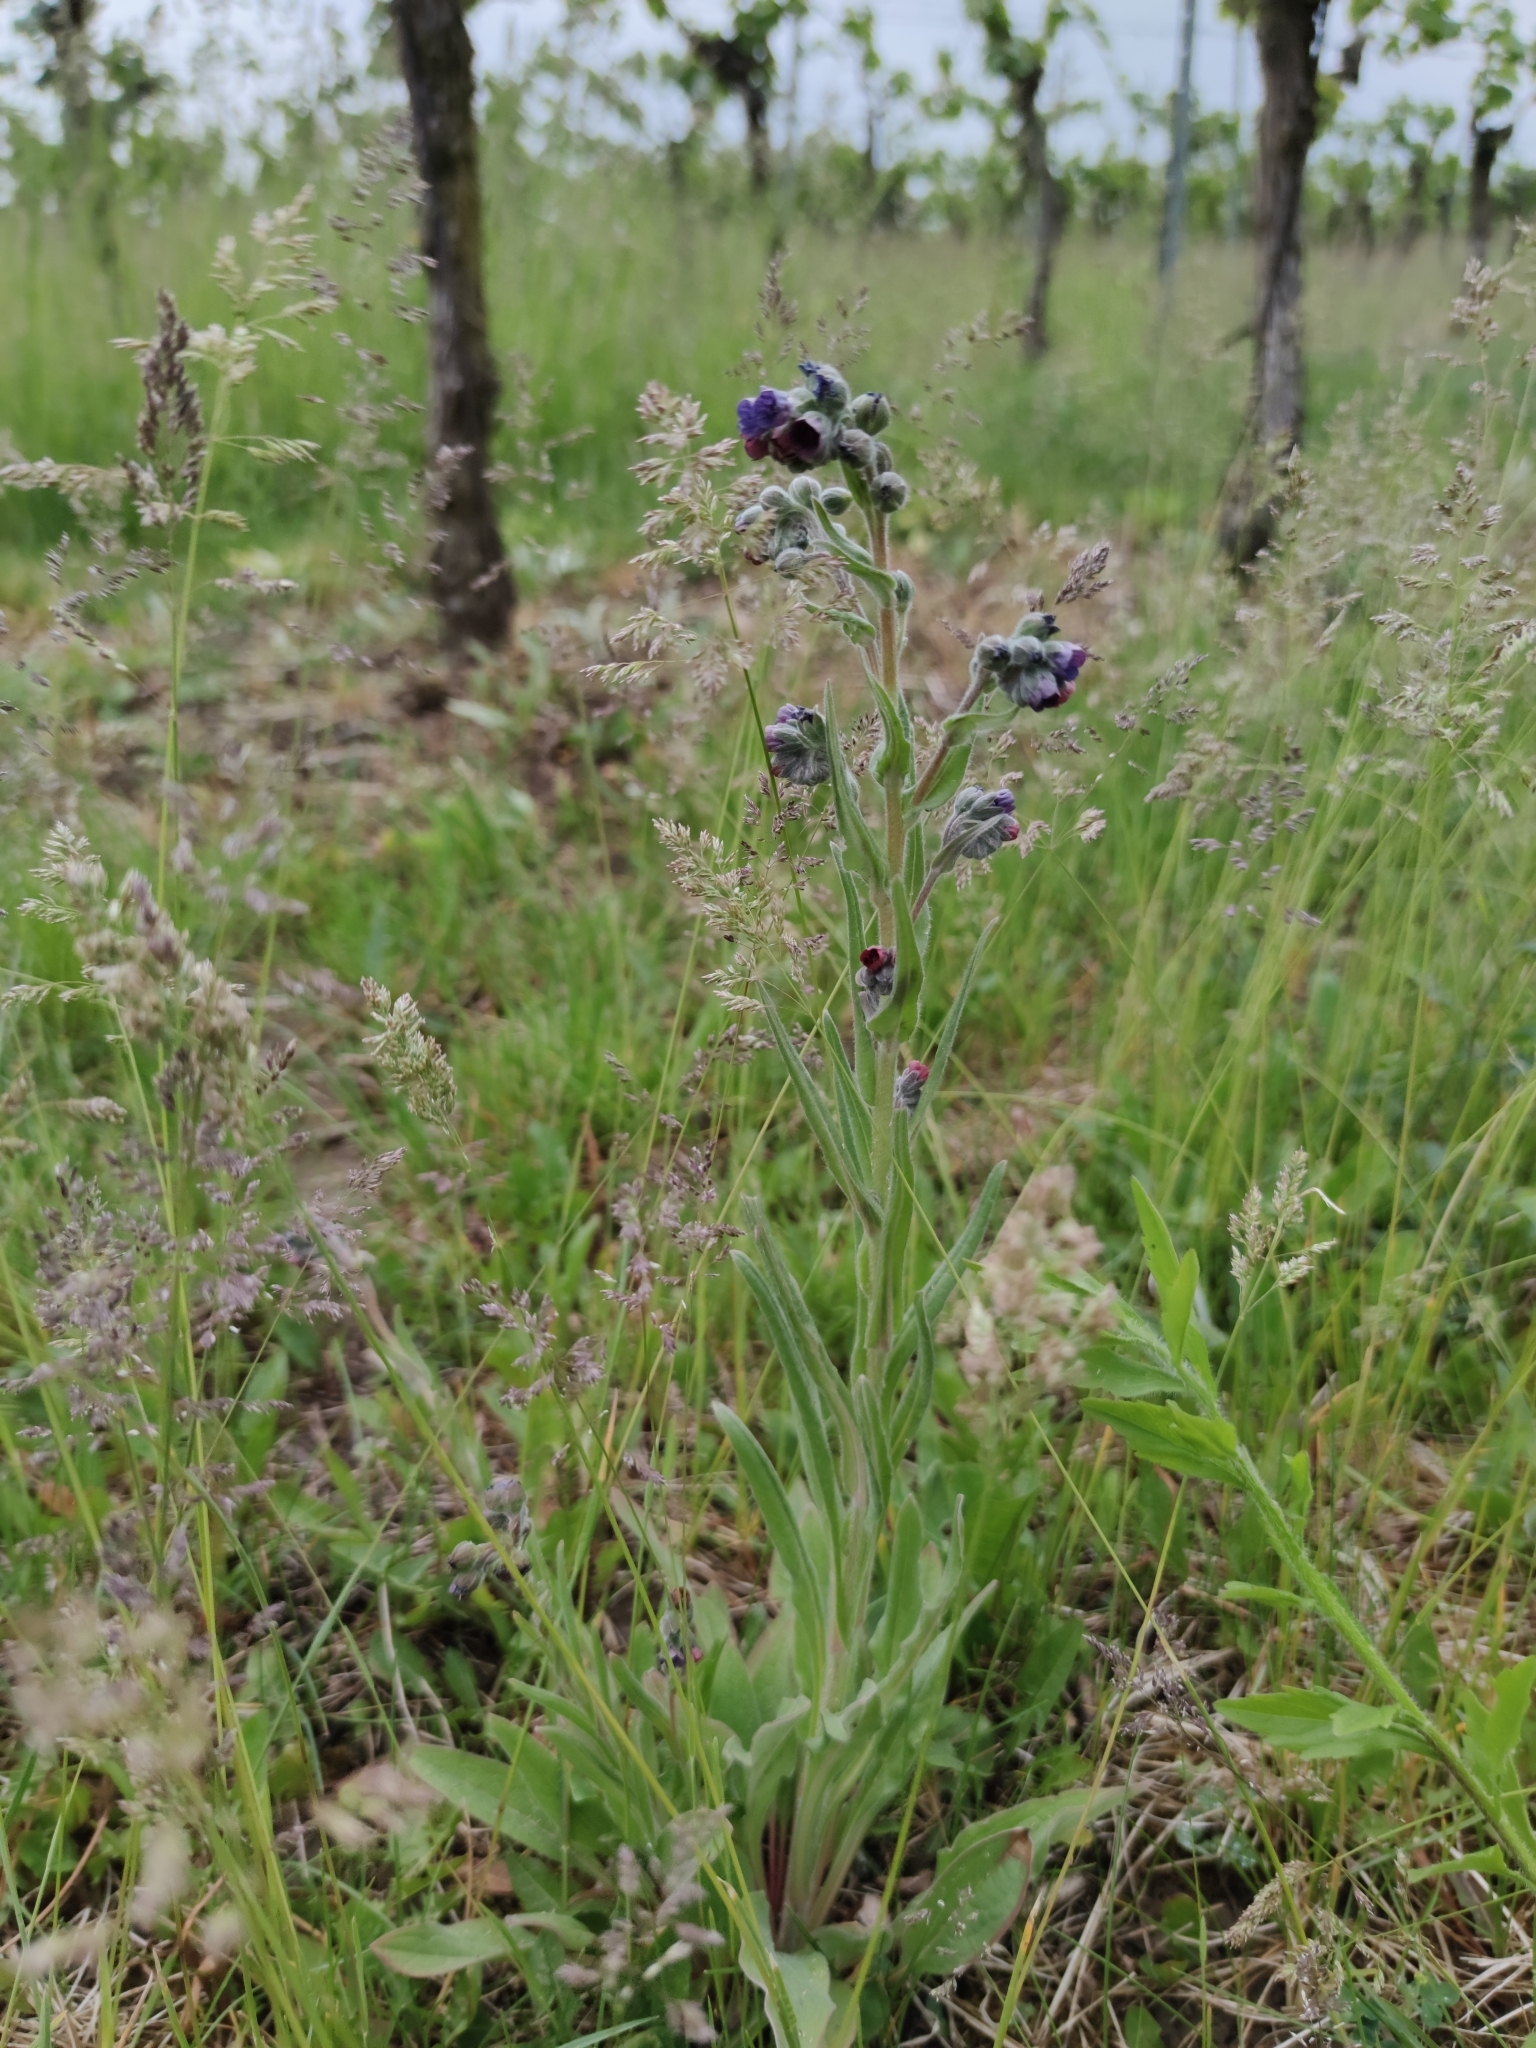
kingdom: Plantae
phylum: Tracheophyta
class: Magnoliopsida
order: Boraginales
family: Boraginaceae
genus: Cynoglossum
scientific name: Cynoglossum officinale
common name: Hound's-tongue
